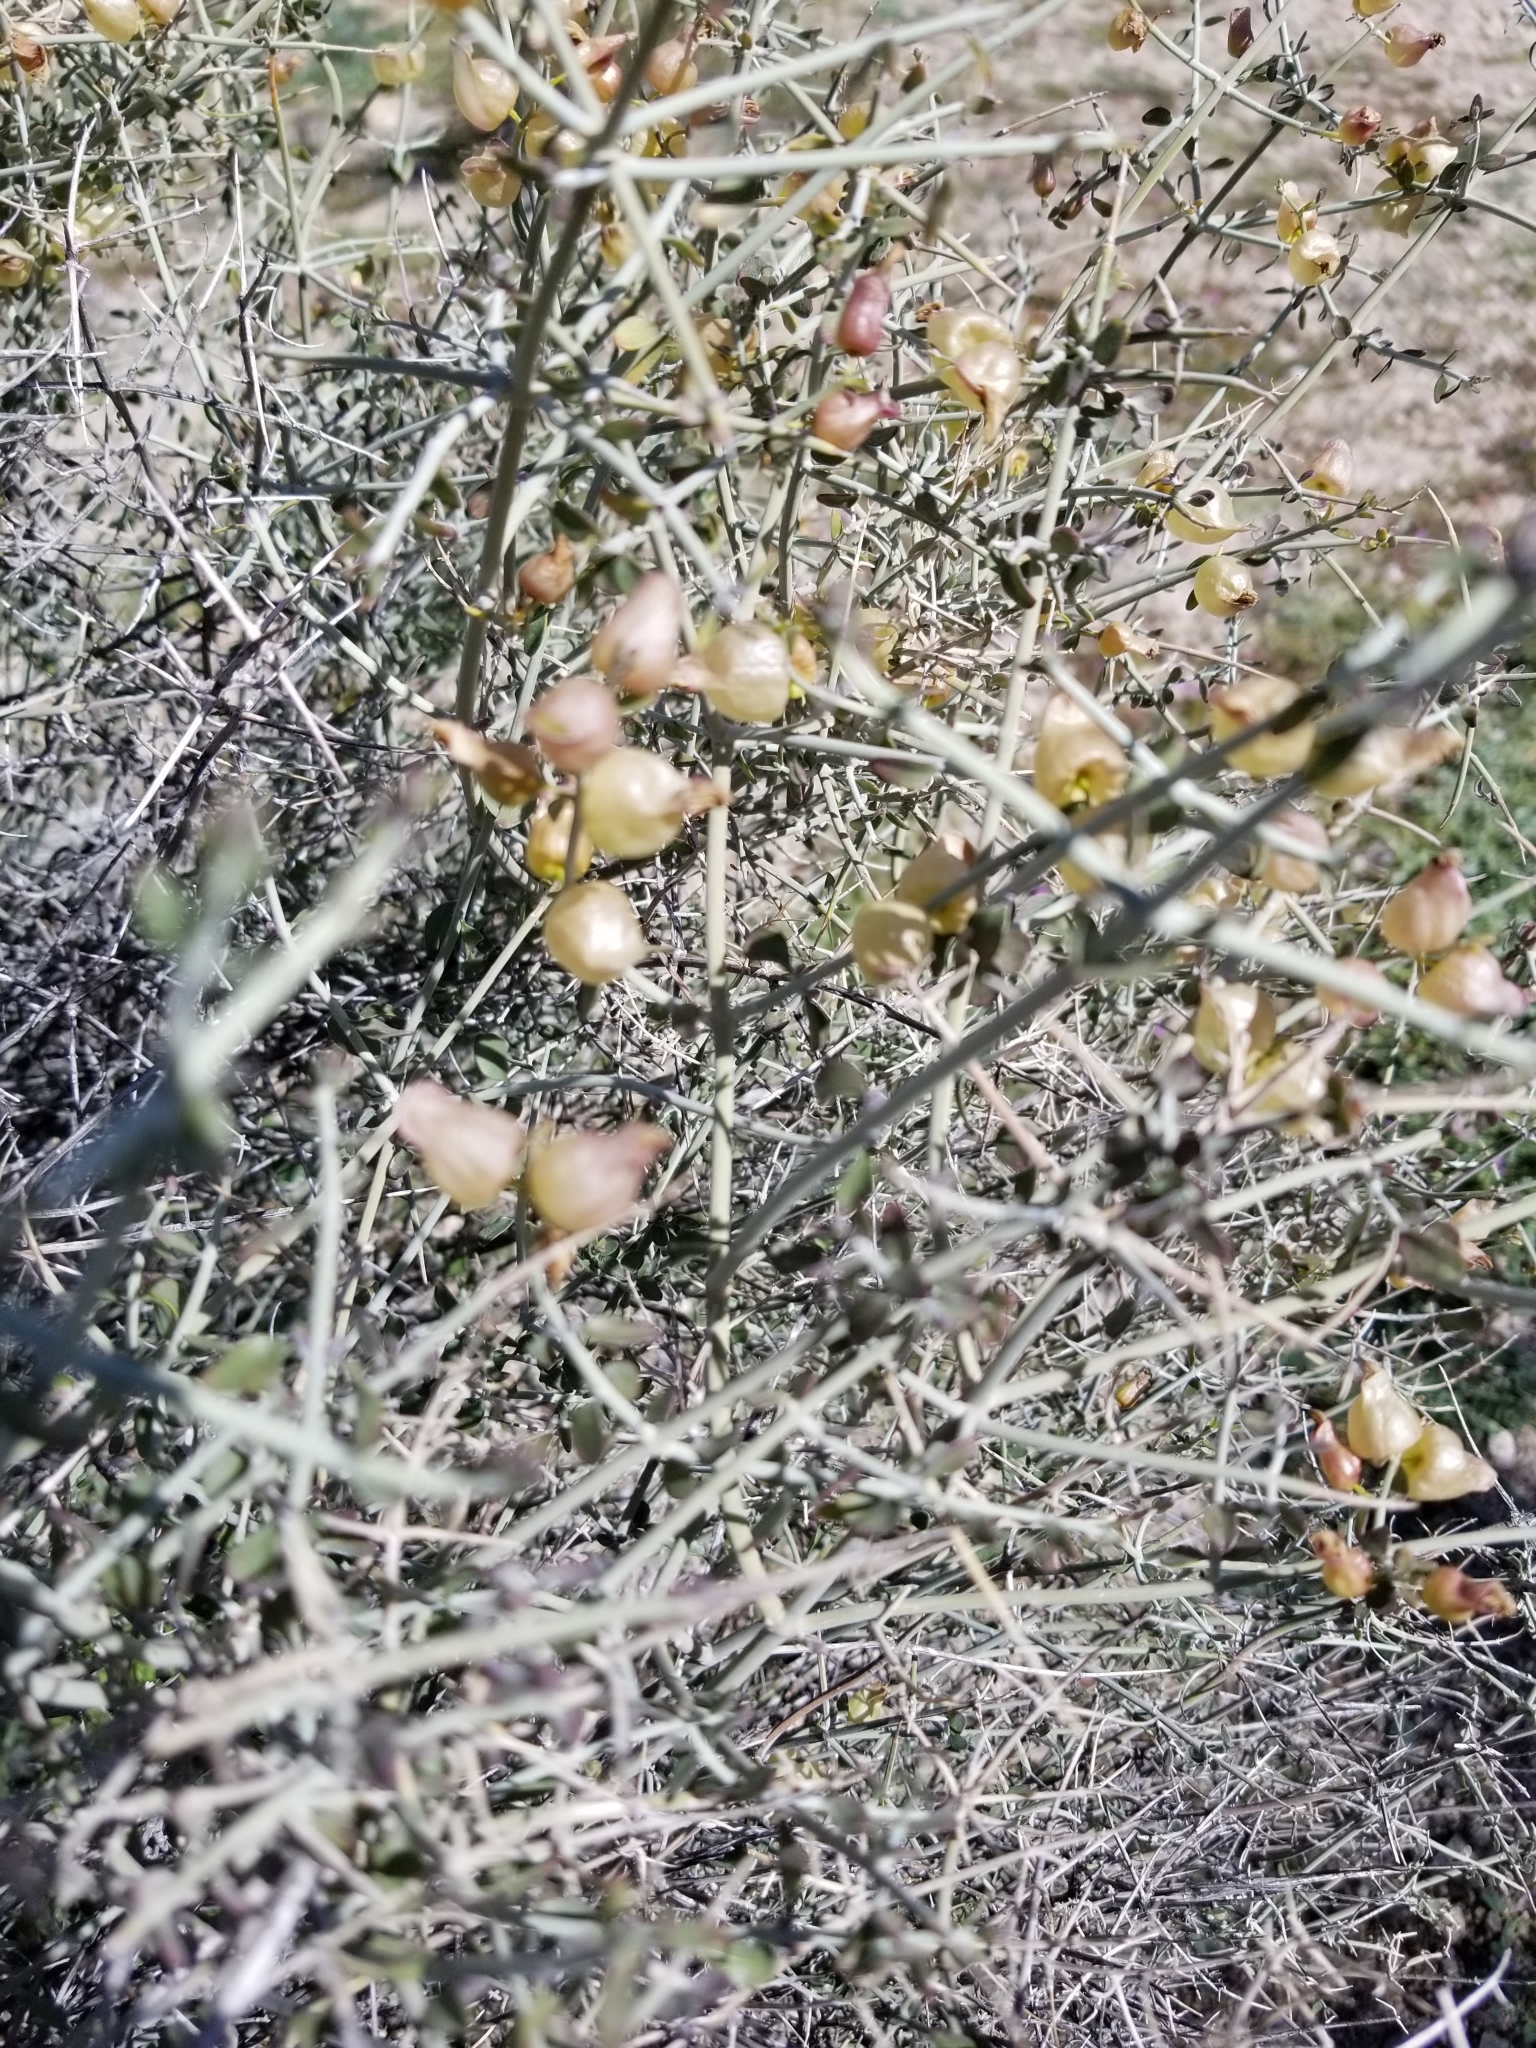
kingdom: Plantae
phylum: Tracheophyta
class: Magnoliopsida
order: Lamiales
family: Lamiaceae
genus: Scutellaria
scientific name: Scutellaria mexicana
